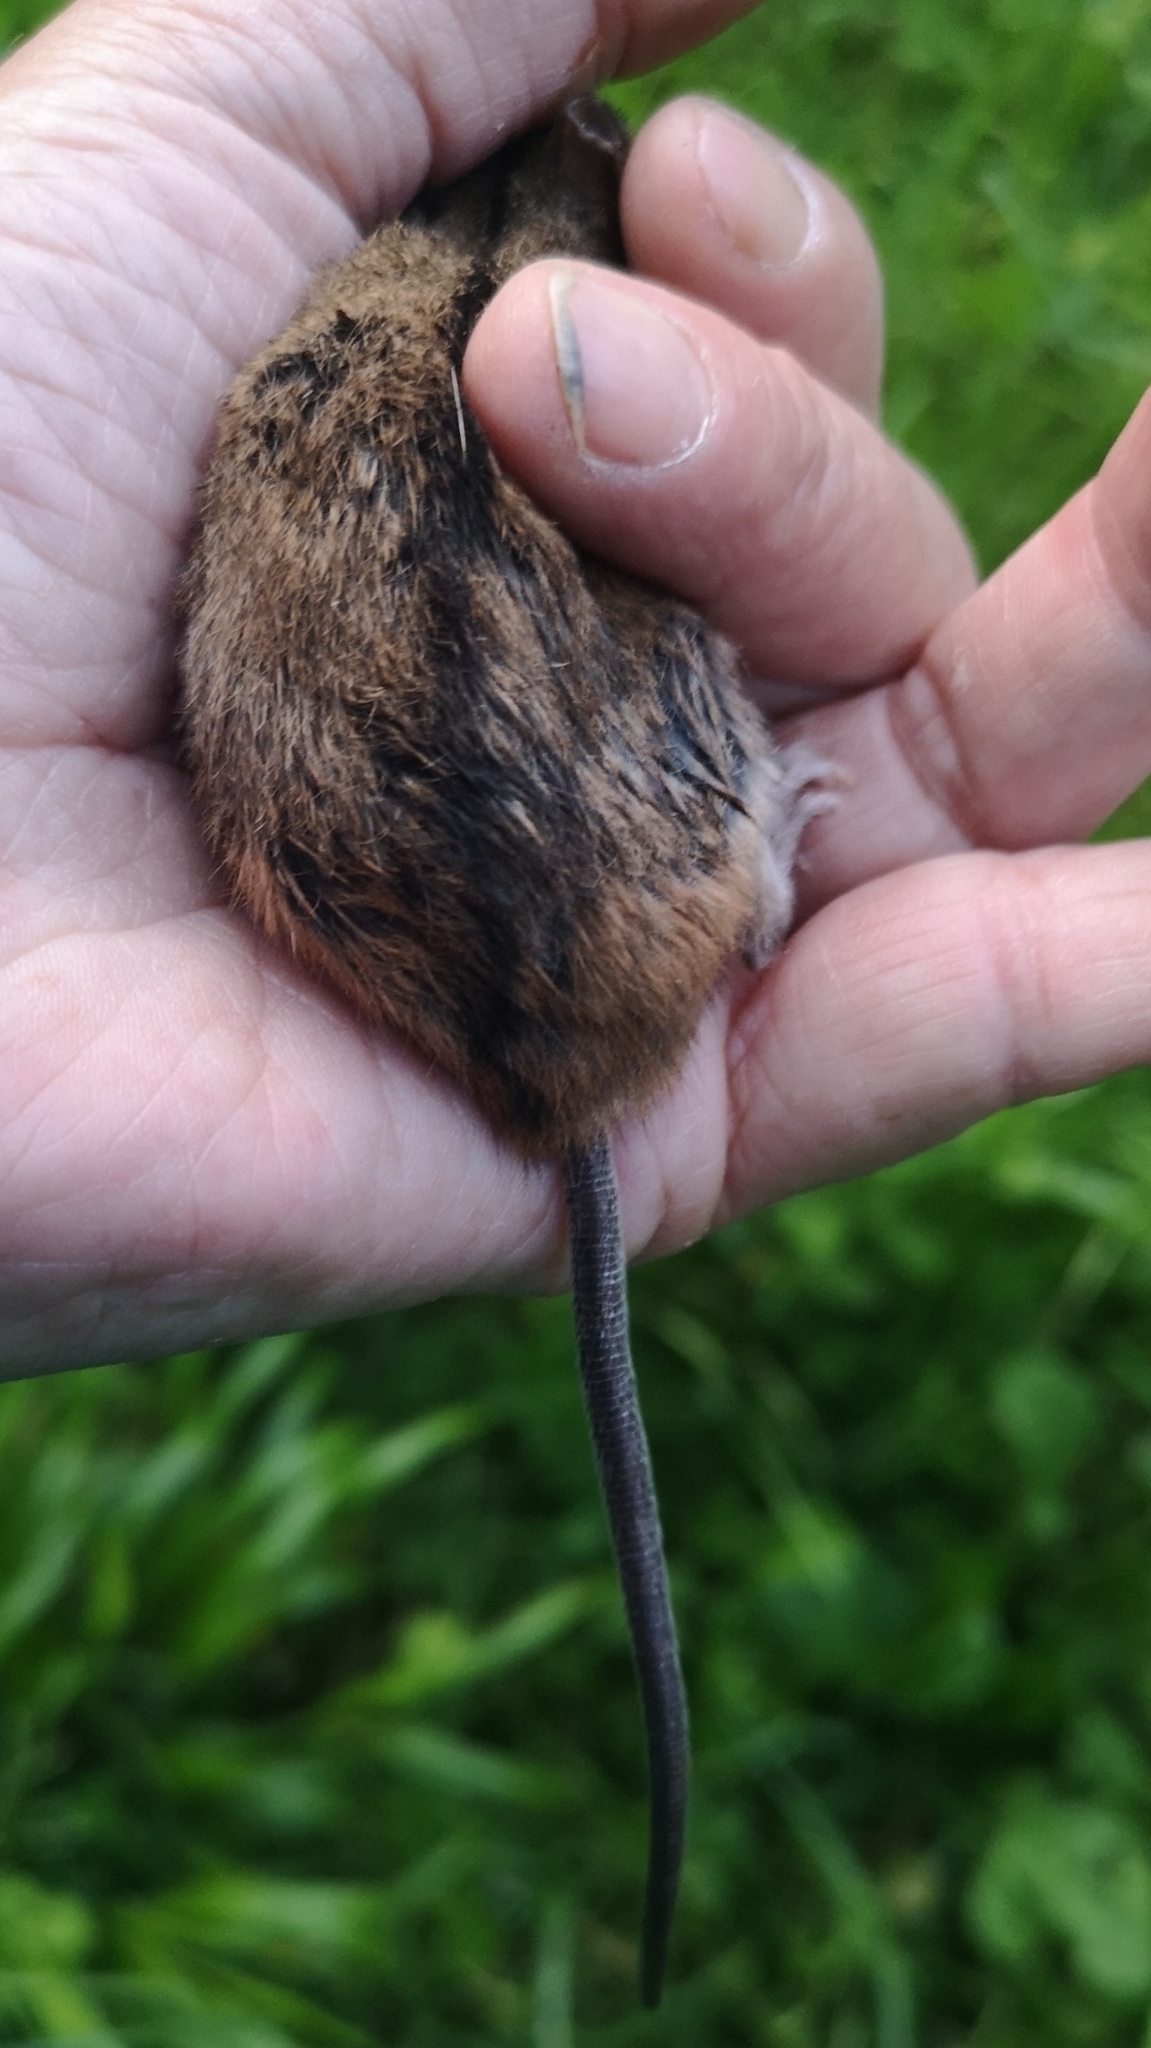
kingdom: Animalia
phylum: Chordata
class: Mammalia
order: Rodentia
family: Muridae
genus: Apodemus
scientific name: Apodemus agrarius
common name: Striped field mouse
